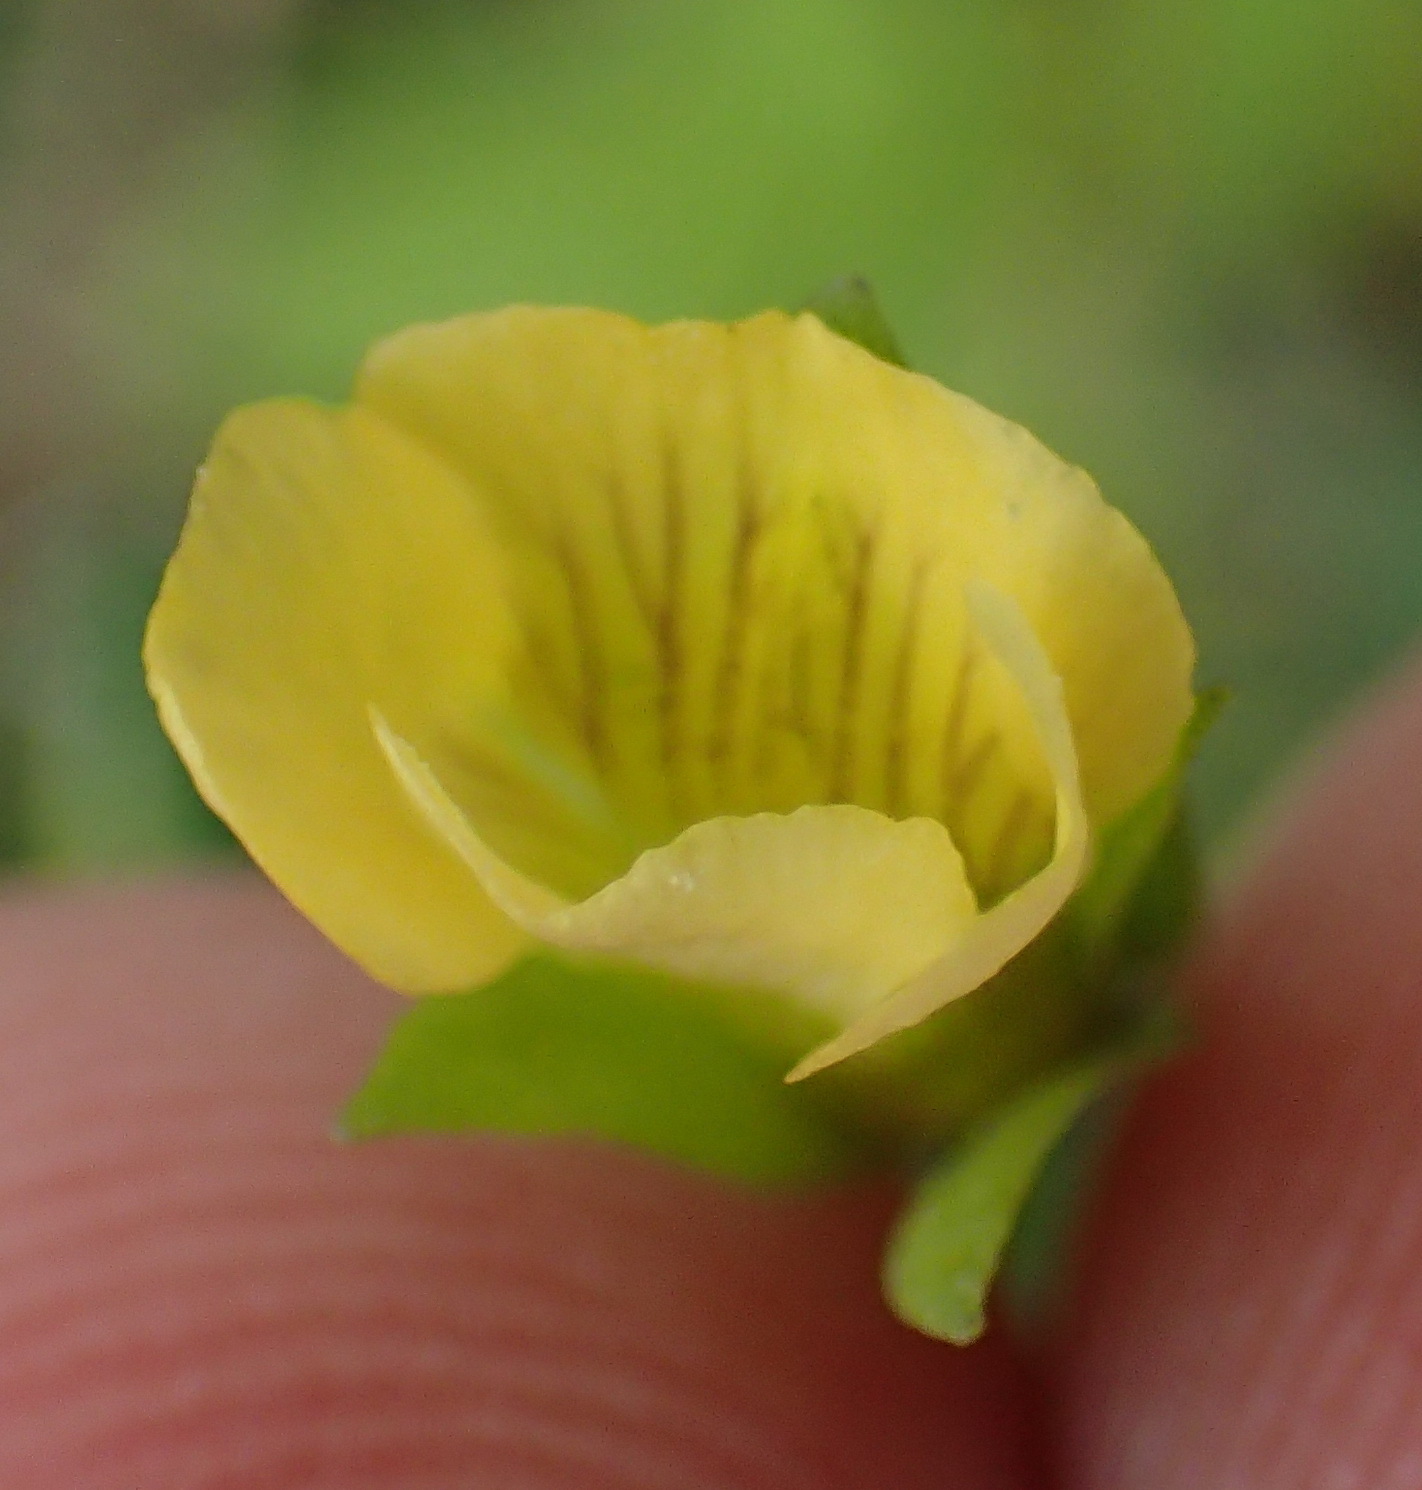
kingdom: Plantae
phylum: Tracheophyta
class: Magnoliopsida
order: Lamiales
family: Plantaginaceae
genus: Mecardonia
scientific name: Mecardonia procumbens
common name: Baby jump-up
